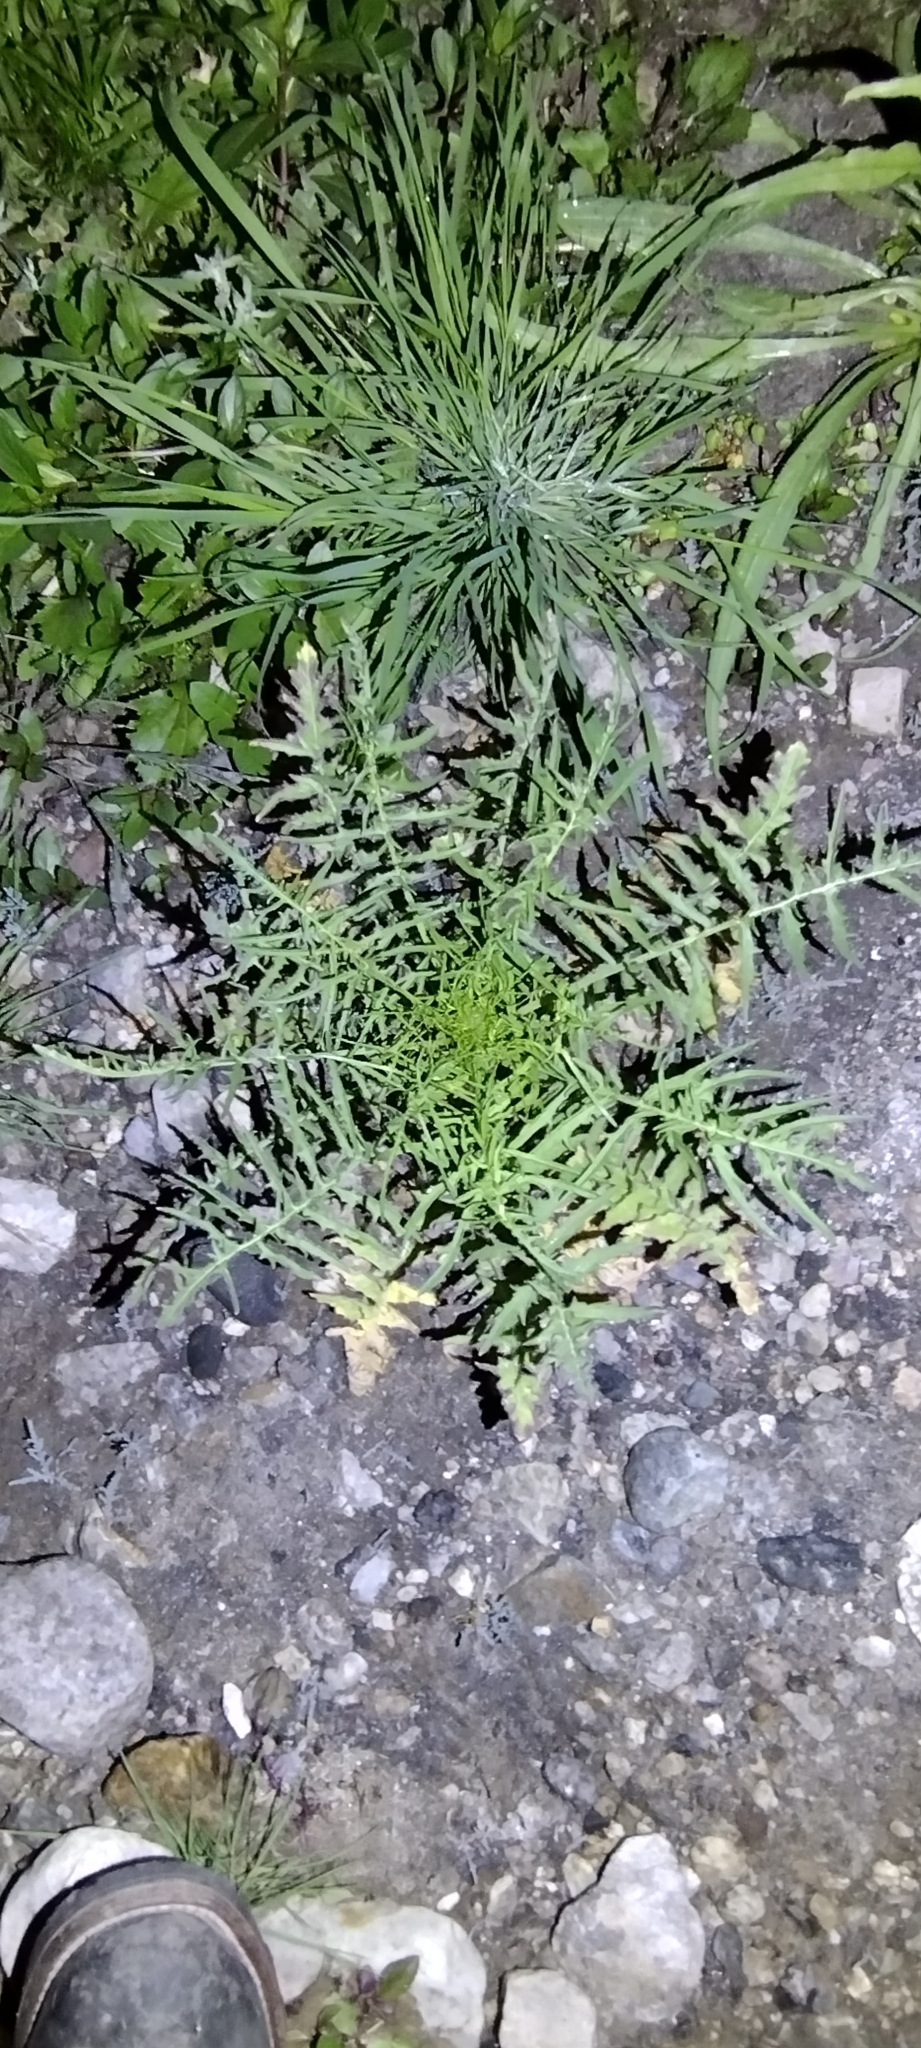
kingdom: Plantae
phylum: Tracheophyta
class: Magnoliopsida
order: Brassicales
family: Brassicaceae
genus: Sisymbrium
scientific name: Sisymbrium altissimum
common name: Tall rocket
